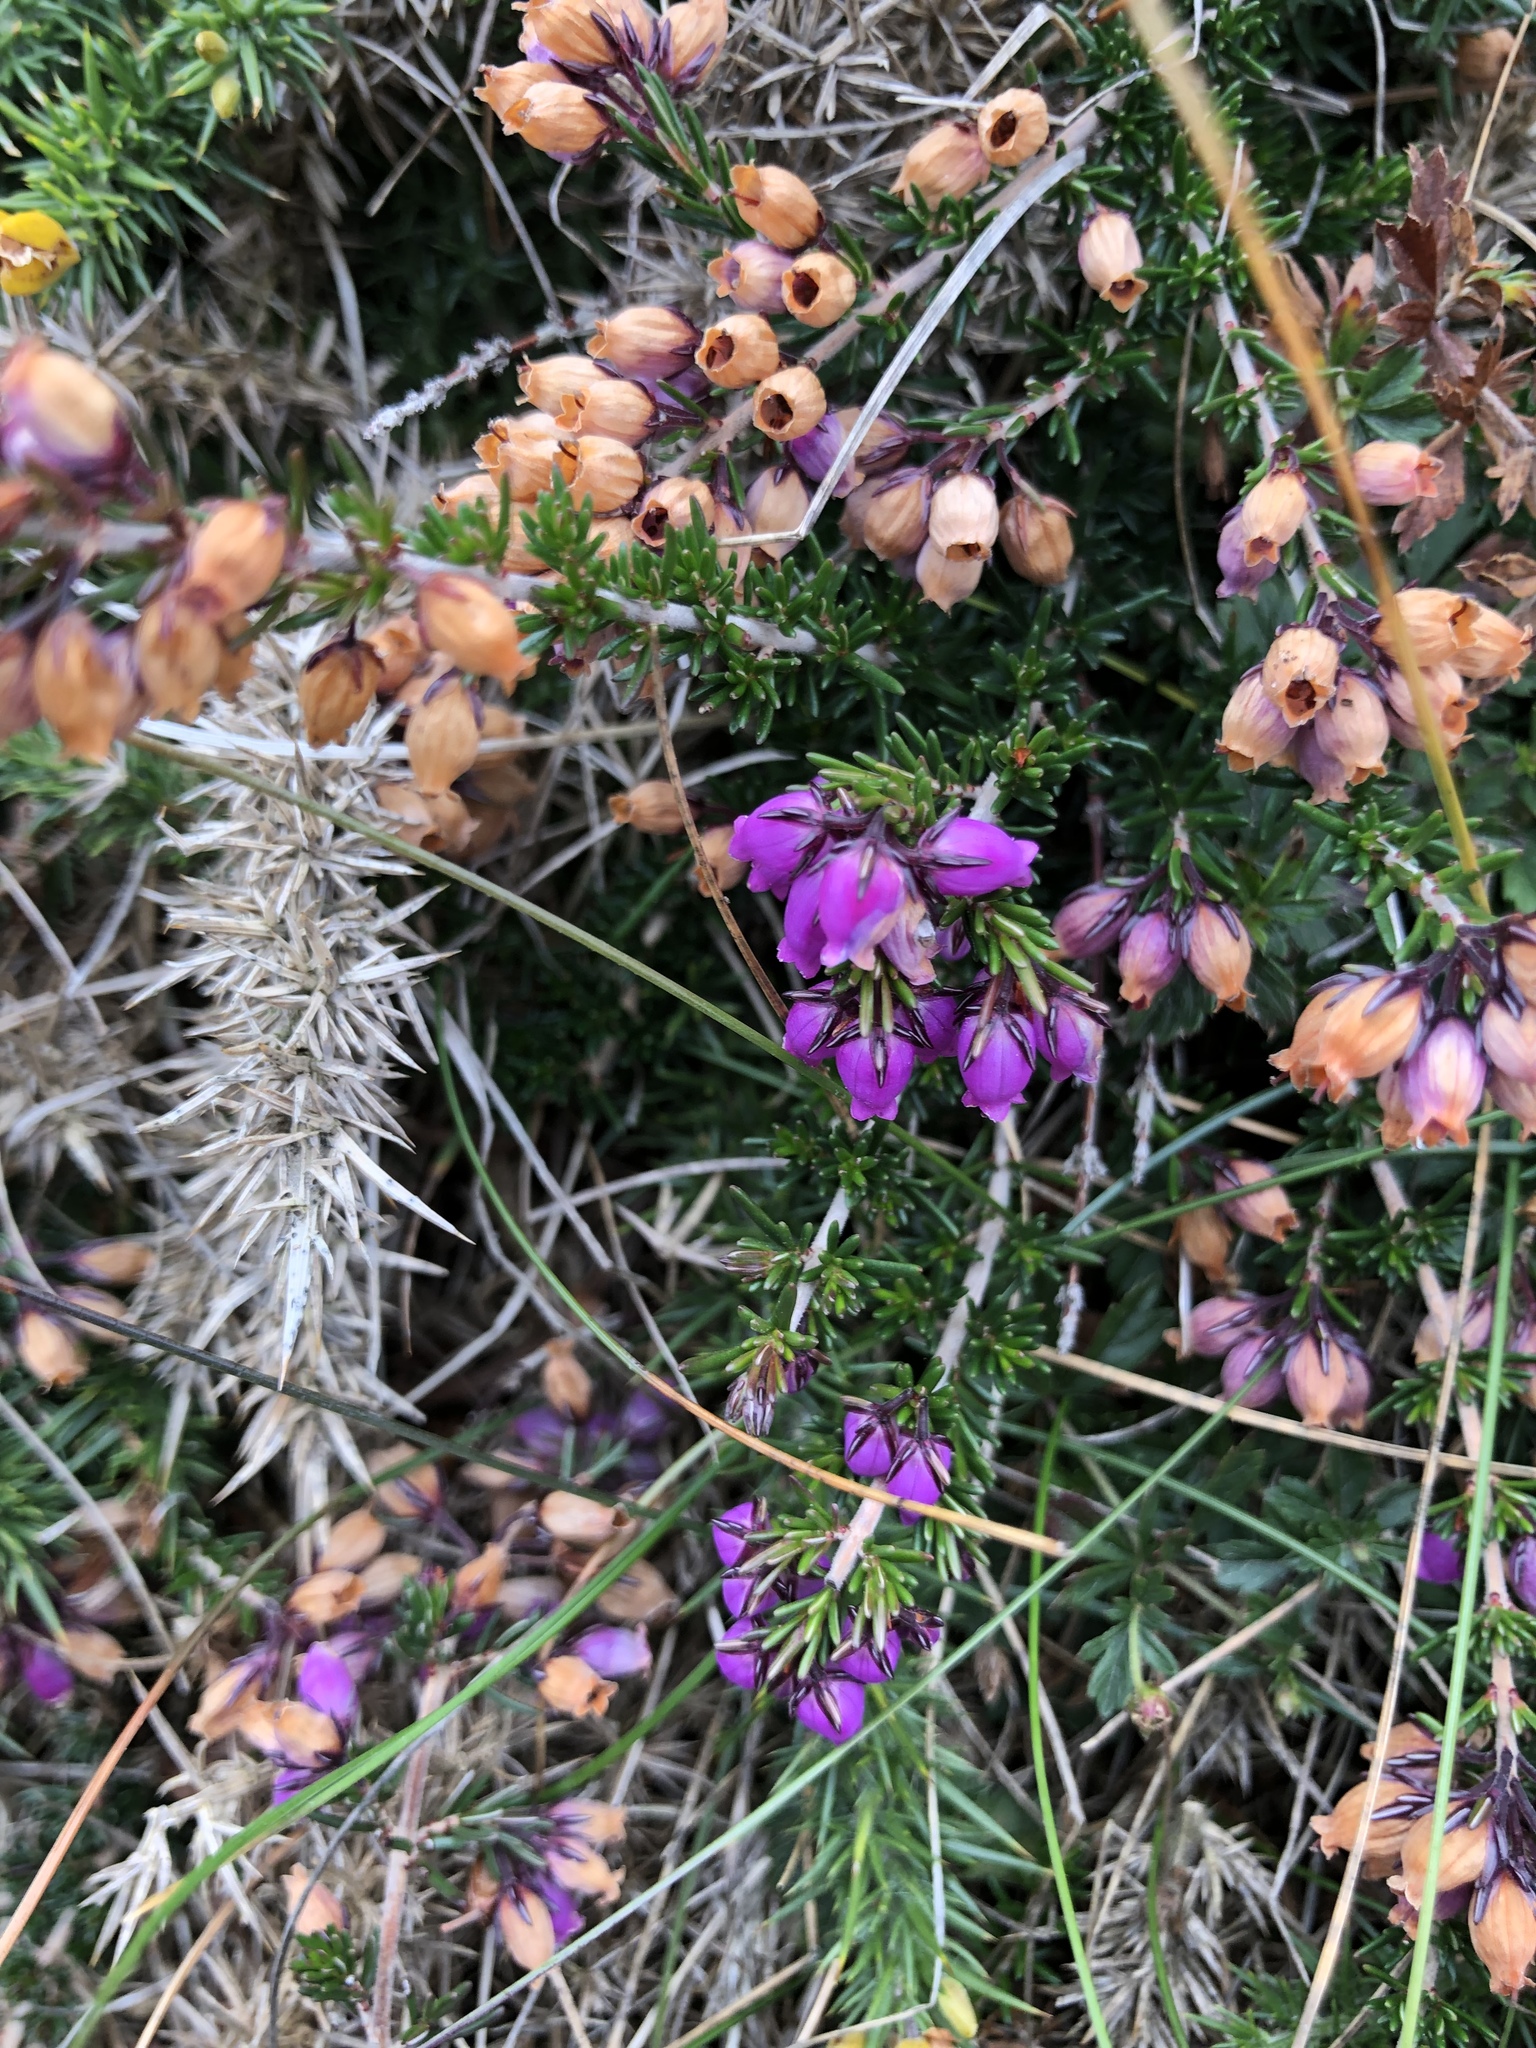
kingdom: Plantae
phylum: Tracheophyta
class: Magnoliopsida
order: Ericales
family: Ericaceae
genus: Erica
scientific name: Erica cinerea
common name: Bell heather
